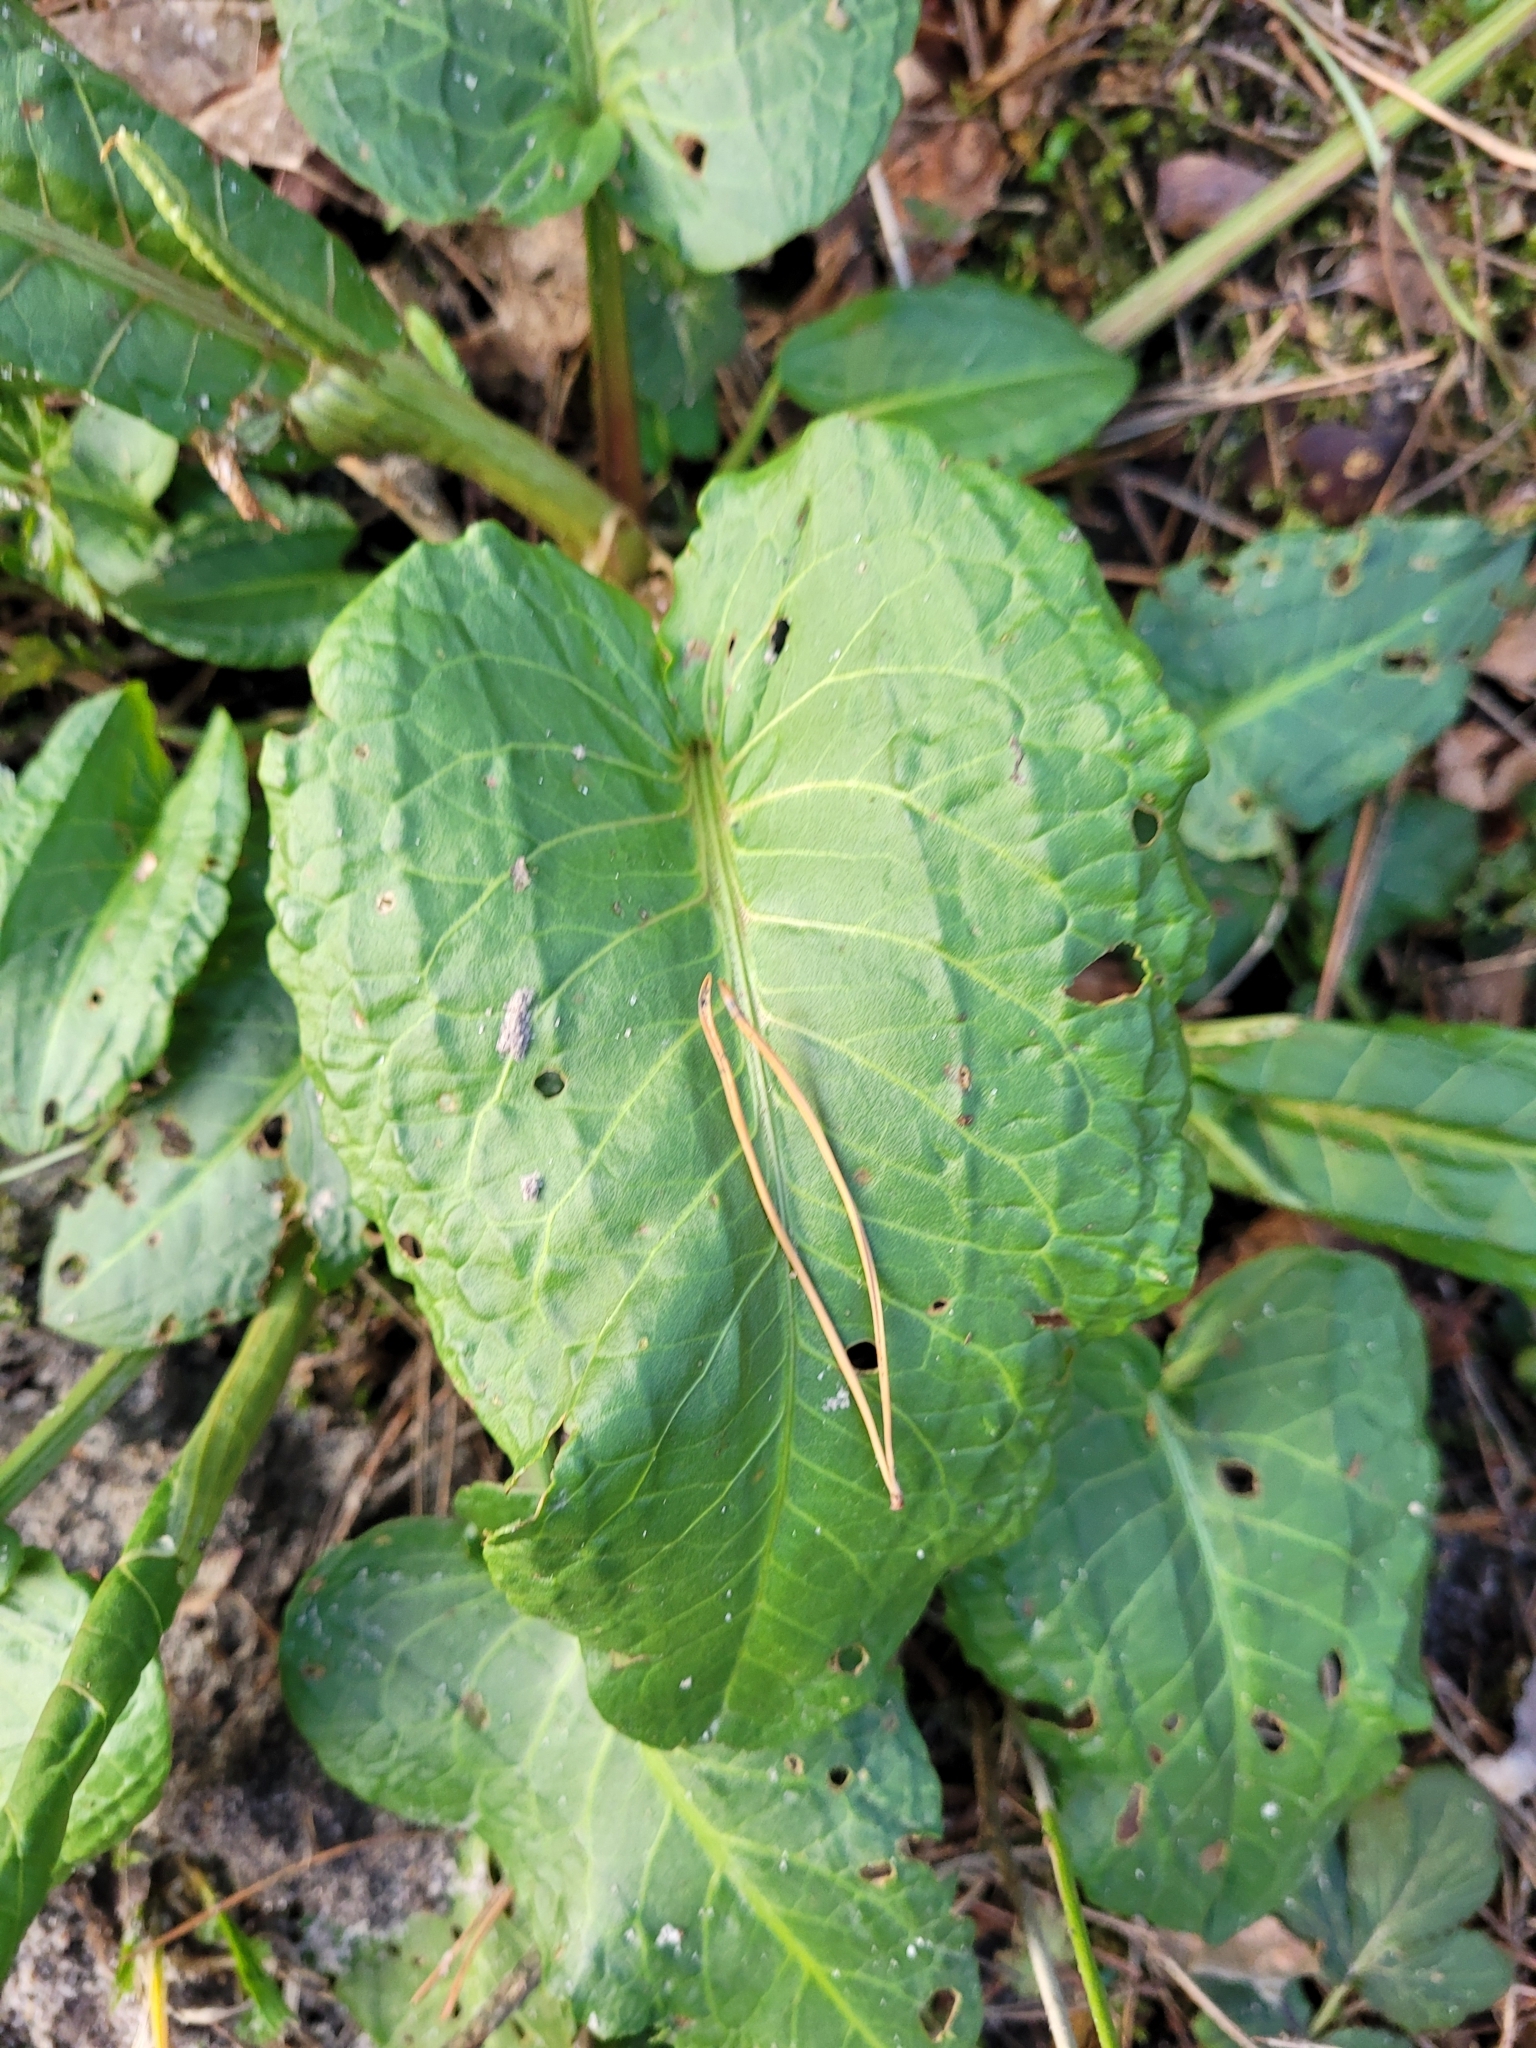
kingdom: Plantae
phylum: Tracheophyta
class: Magnoliopsida
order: Caryophyllales
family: Polygonaceae
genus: Rumex
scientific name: Rumex obtusifolius
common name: Bitter dock
